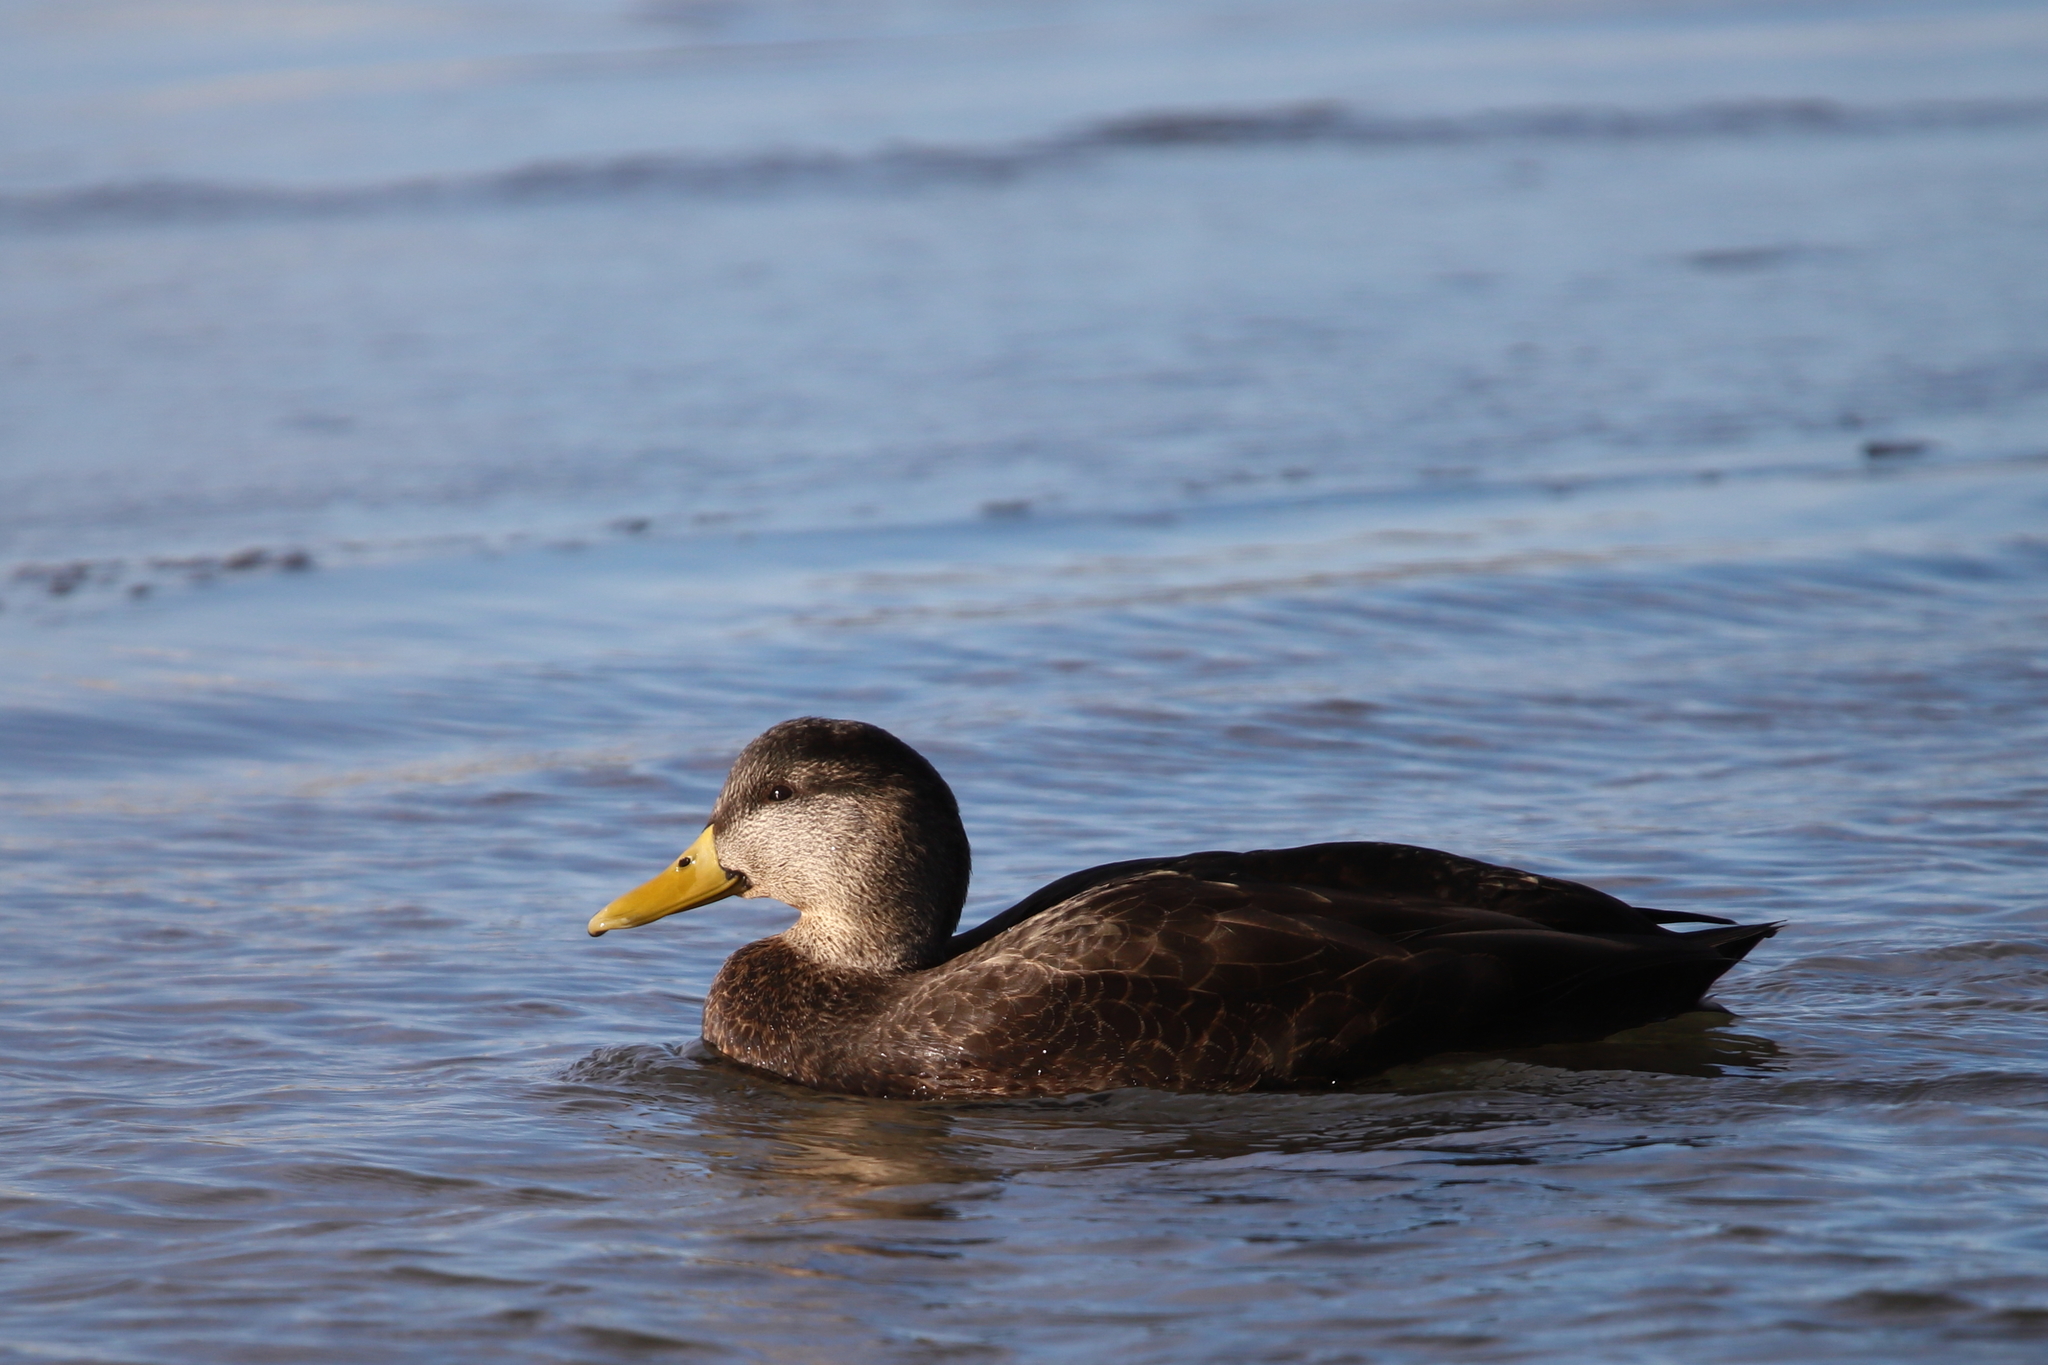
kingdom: Animalia
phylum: Chordata
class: Aves
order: Anseriformes
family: Anatidae
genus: Anas
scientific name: Anas rubripes
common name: American black duck
